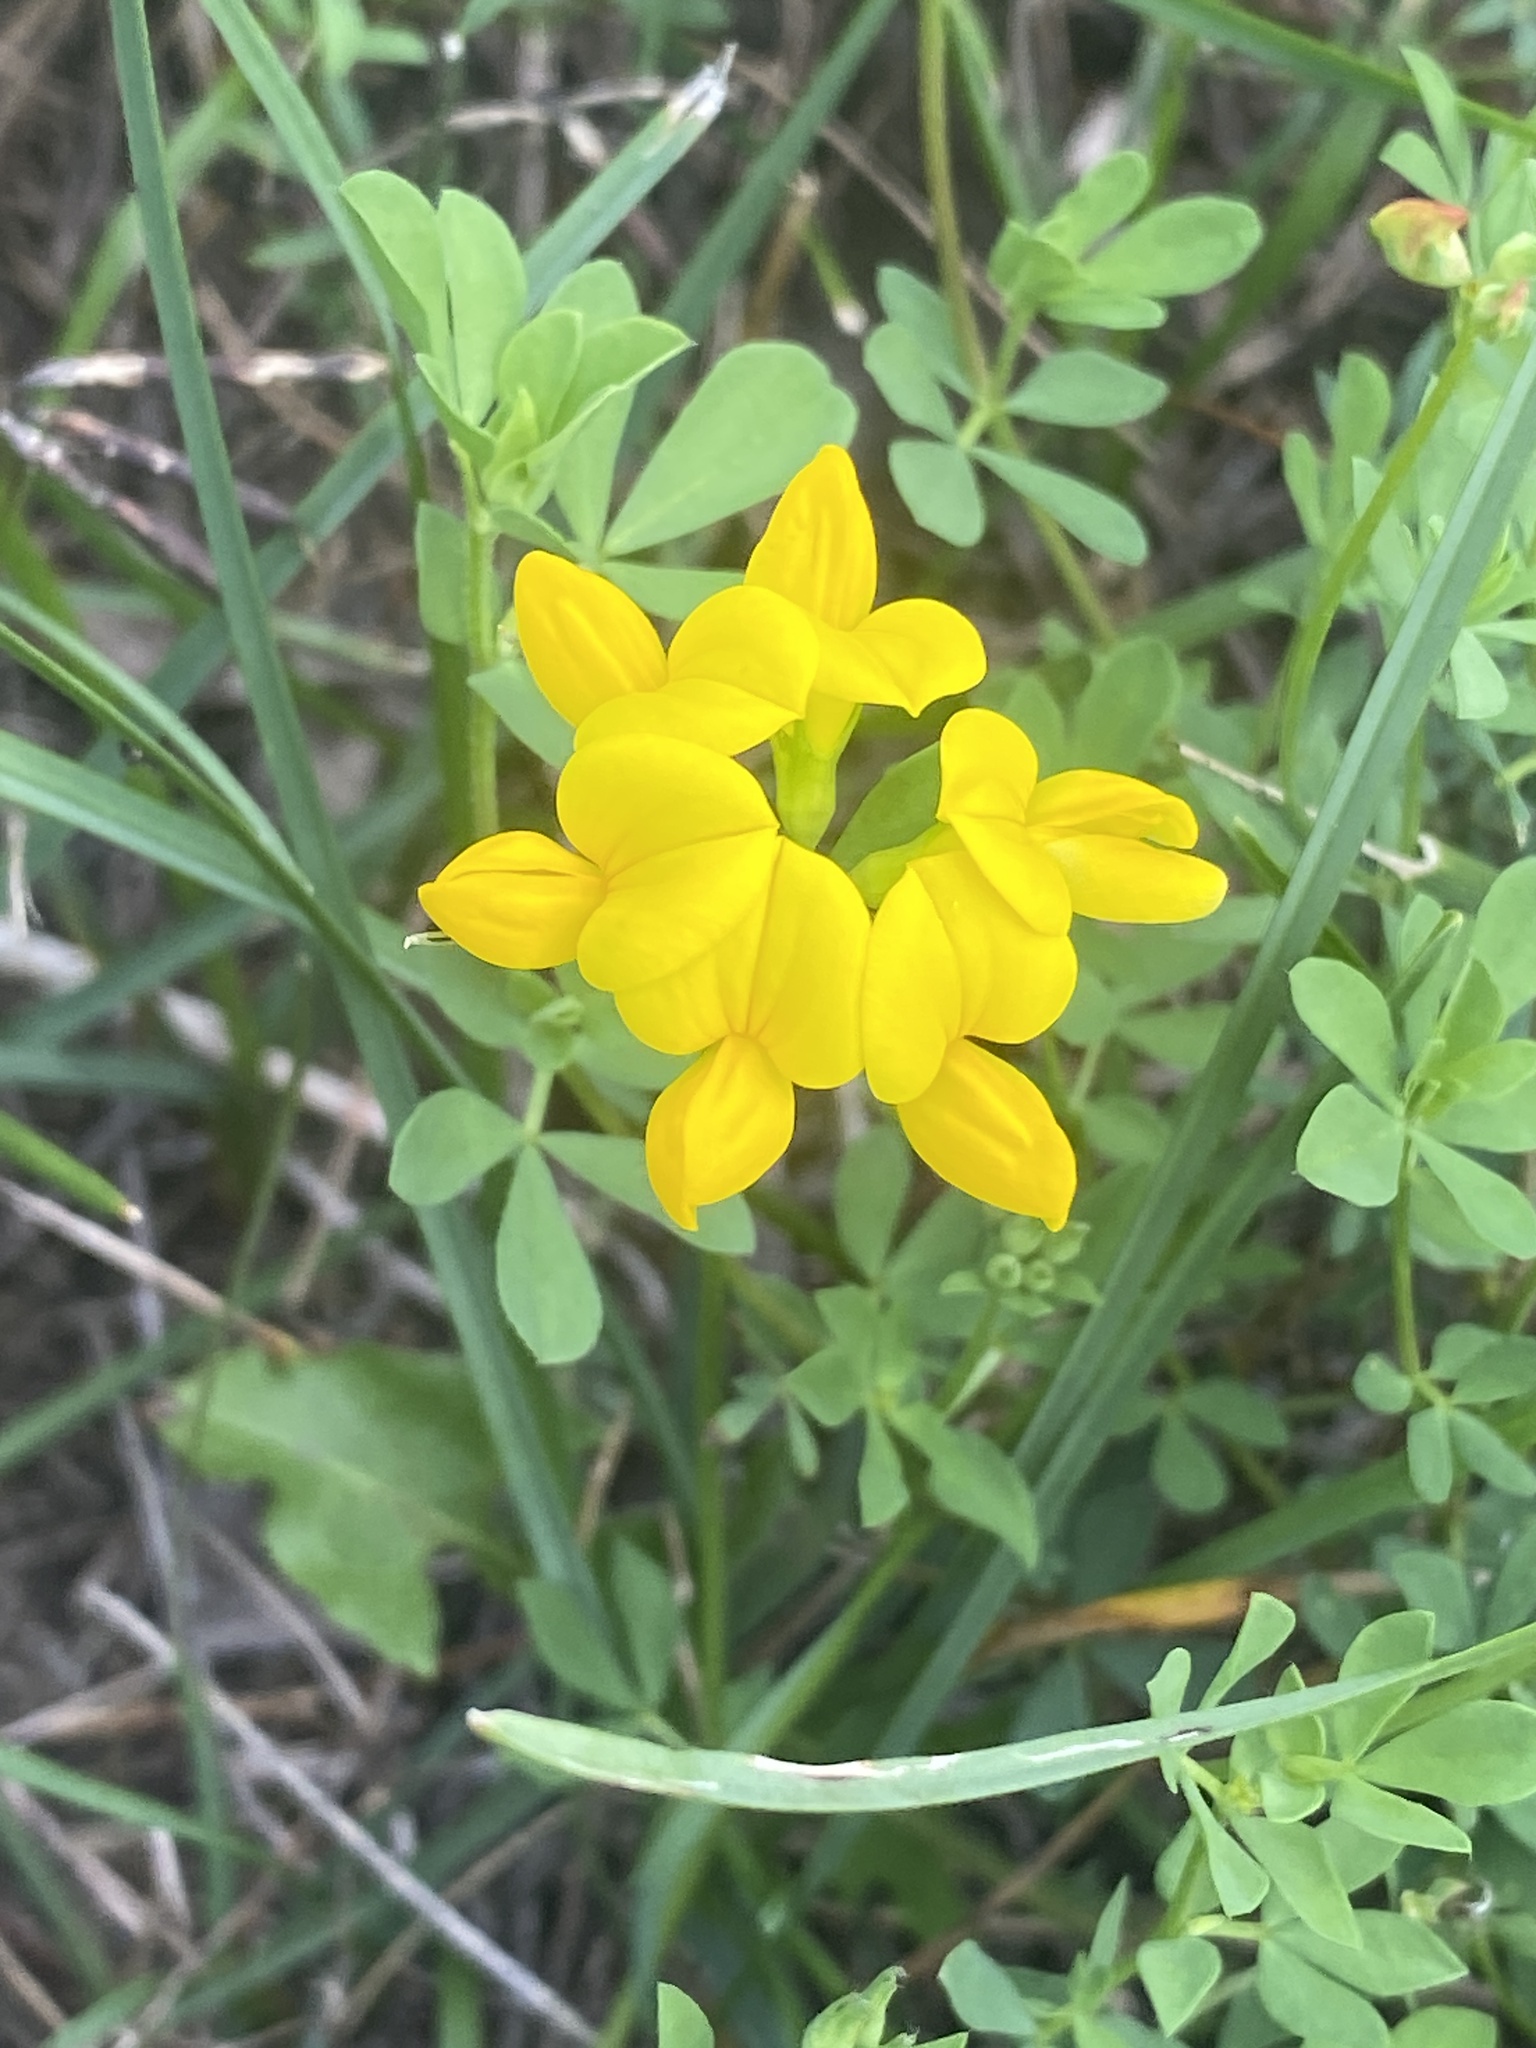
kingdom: Plantae
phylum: Tracheophyta
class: Magnoliopsida
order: Fabales
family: Fabaceae
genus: Lotus
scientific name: Lotus corniculatus
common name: Common bird's-foot-trefoil
